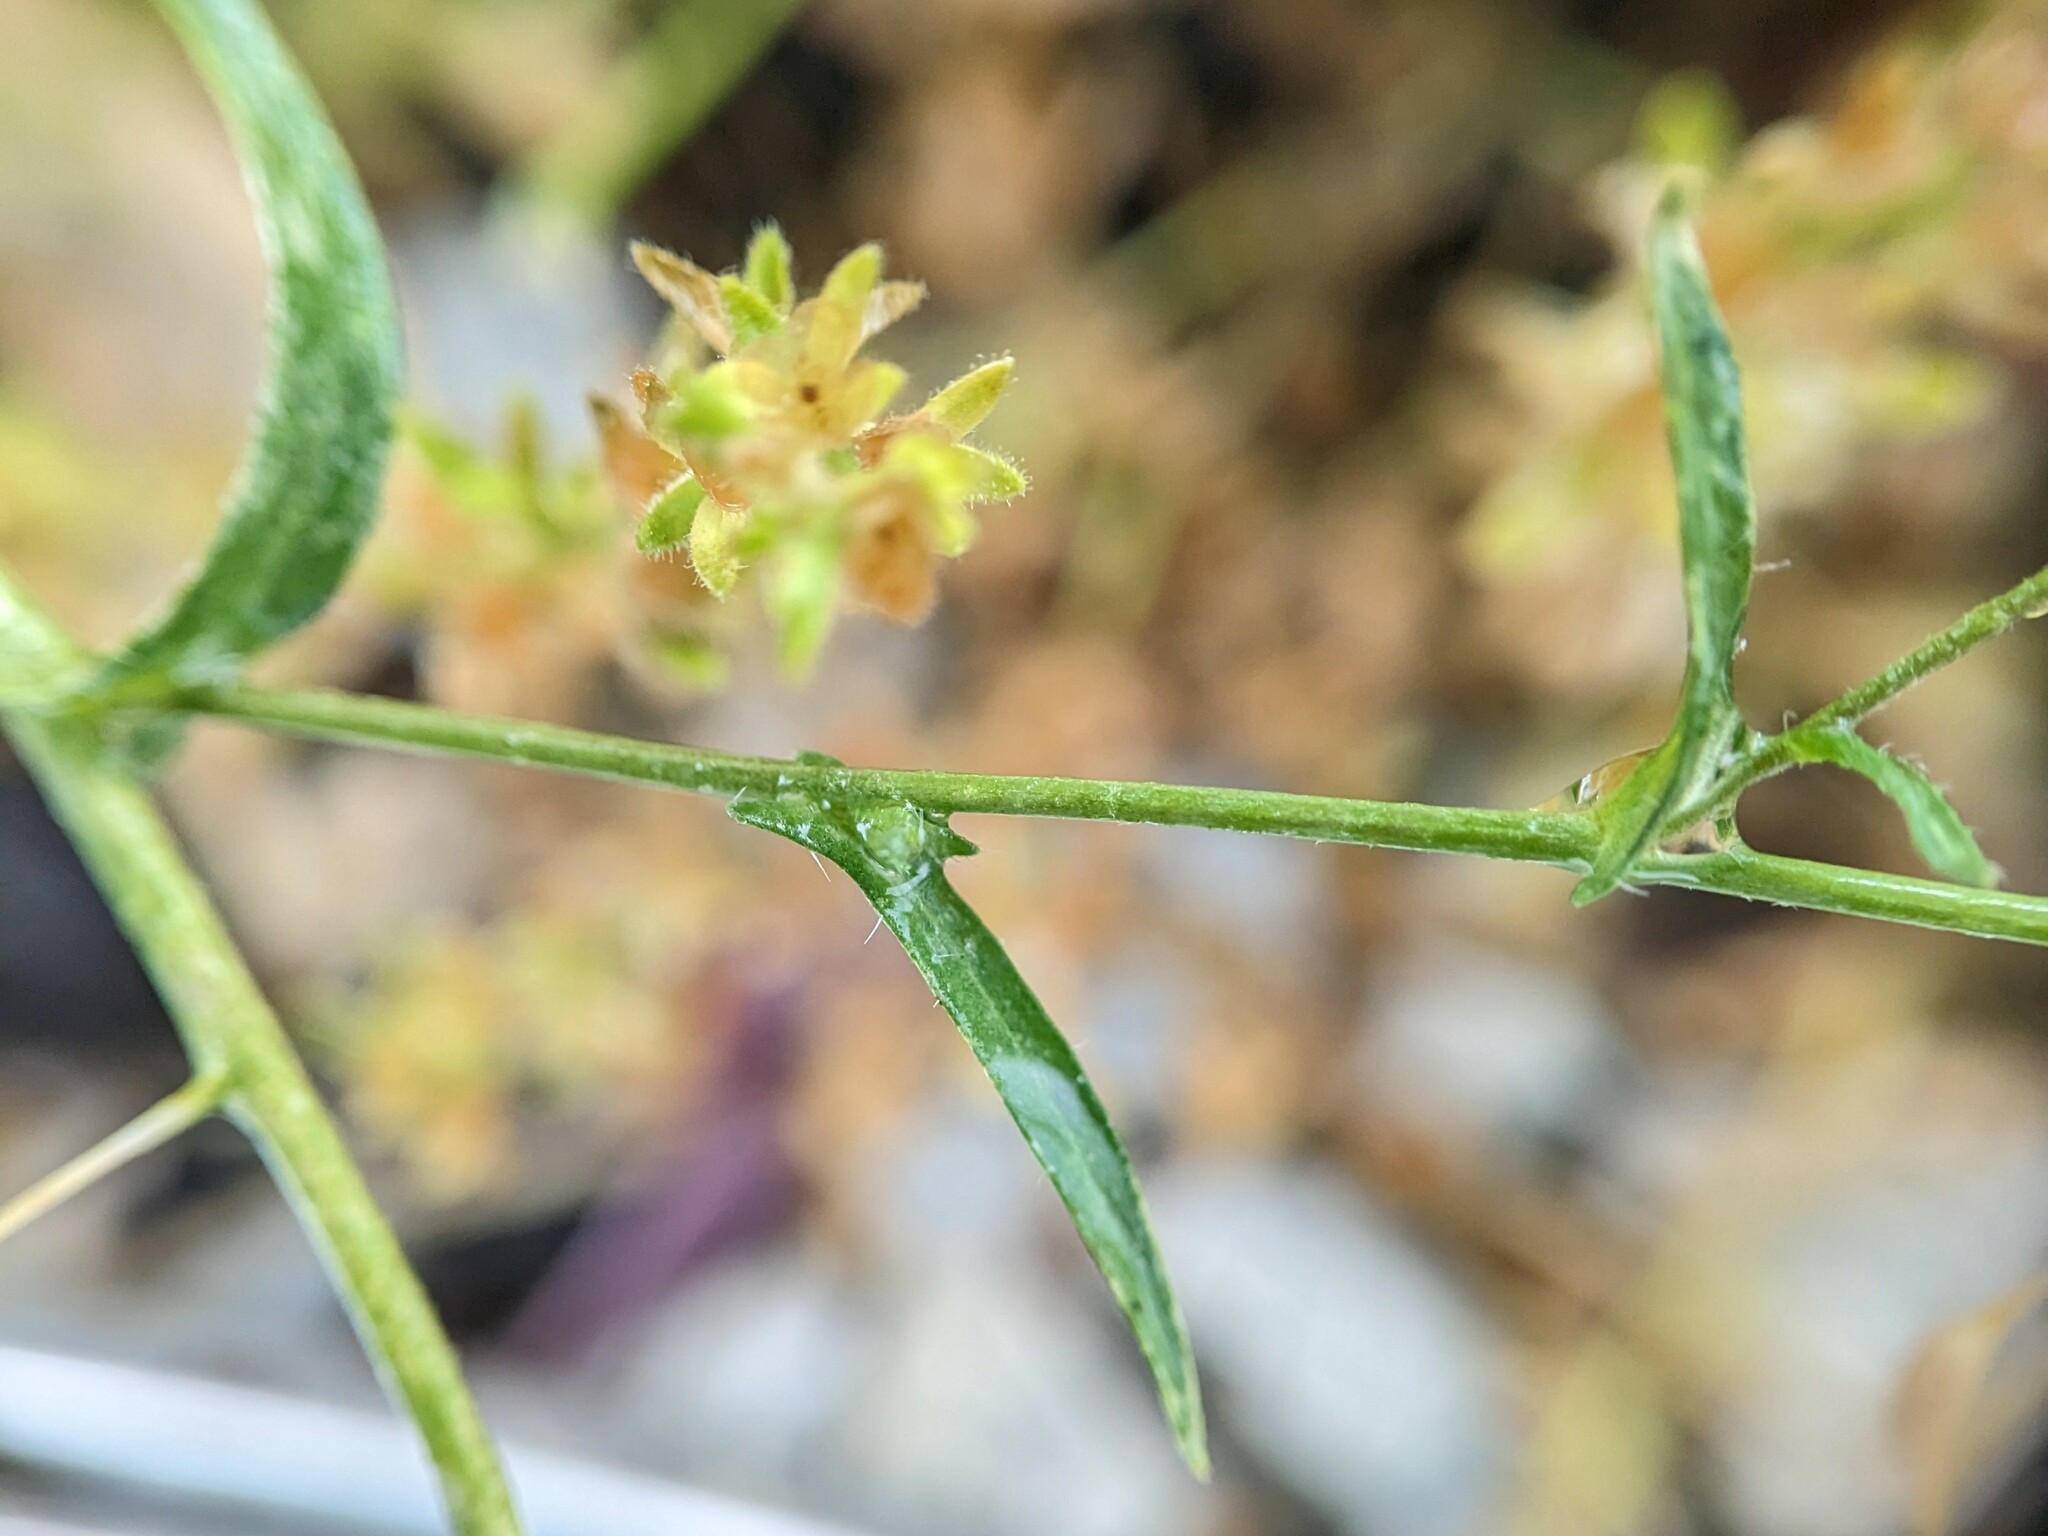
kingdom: Plantae
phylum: Tracheophyta
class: Magnoliopsida
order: Brassicales
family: Brassicaceae
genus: Capsella
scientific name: Capsella bursa-pastoris
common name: Shepherd's purse
